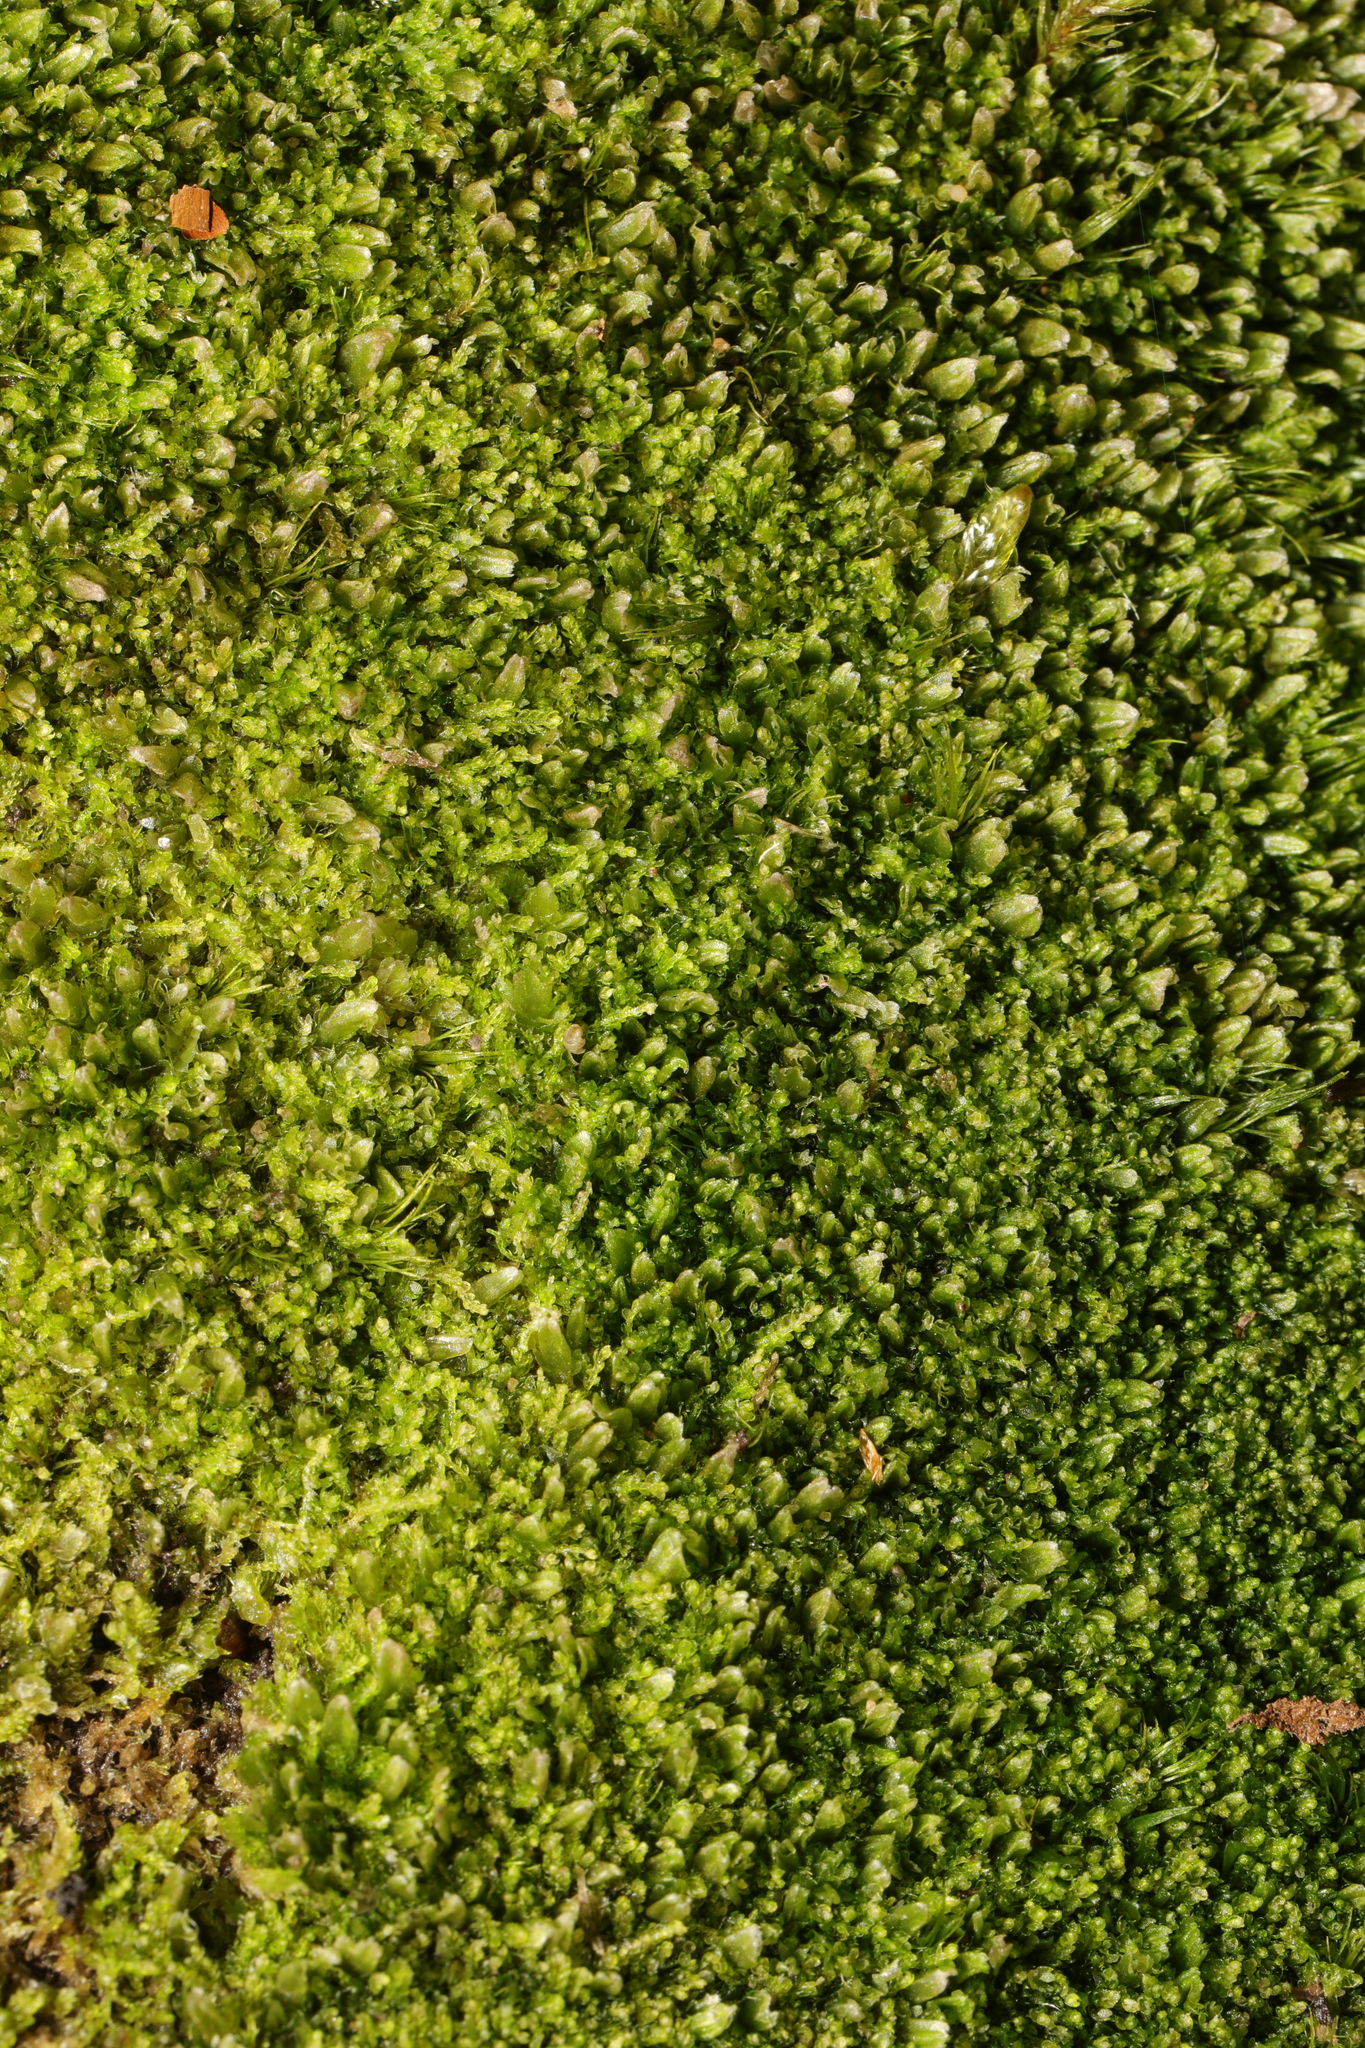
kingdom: Plantae
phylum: Marchantiophyta
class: Jungermanniopsida
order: Jungermanniales
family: Anastrophyllaceae
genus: Gymnocolea
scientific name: Gymnocolea inflata
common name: Inflated notchwort
